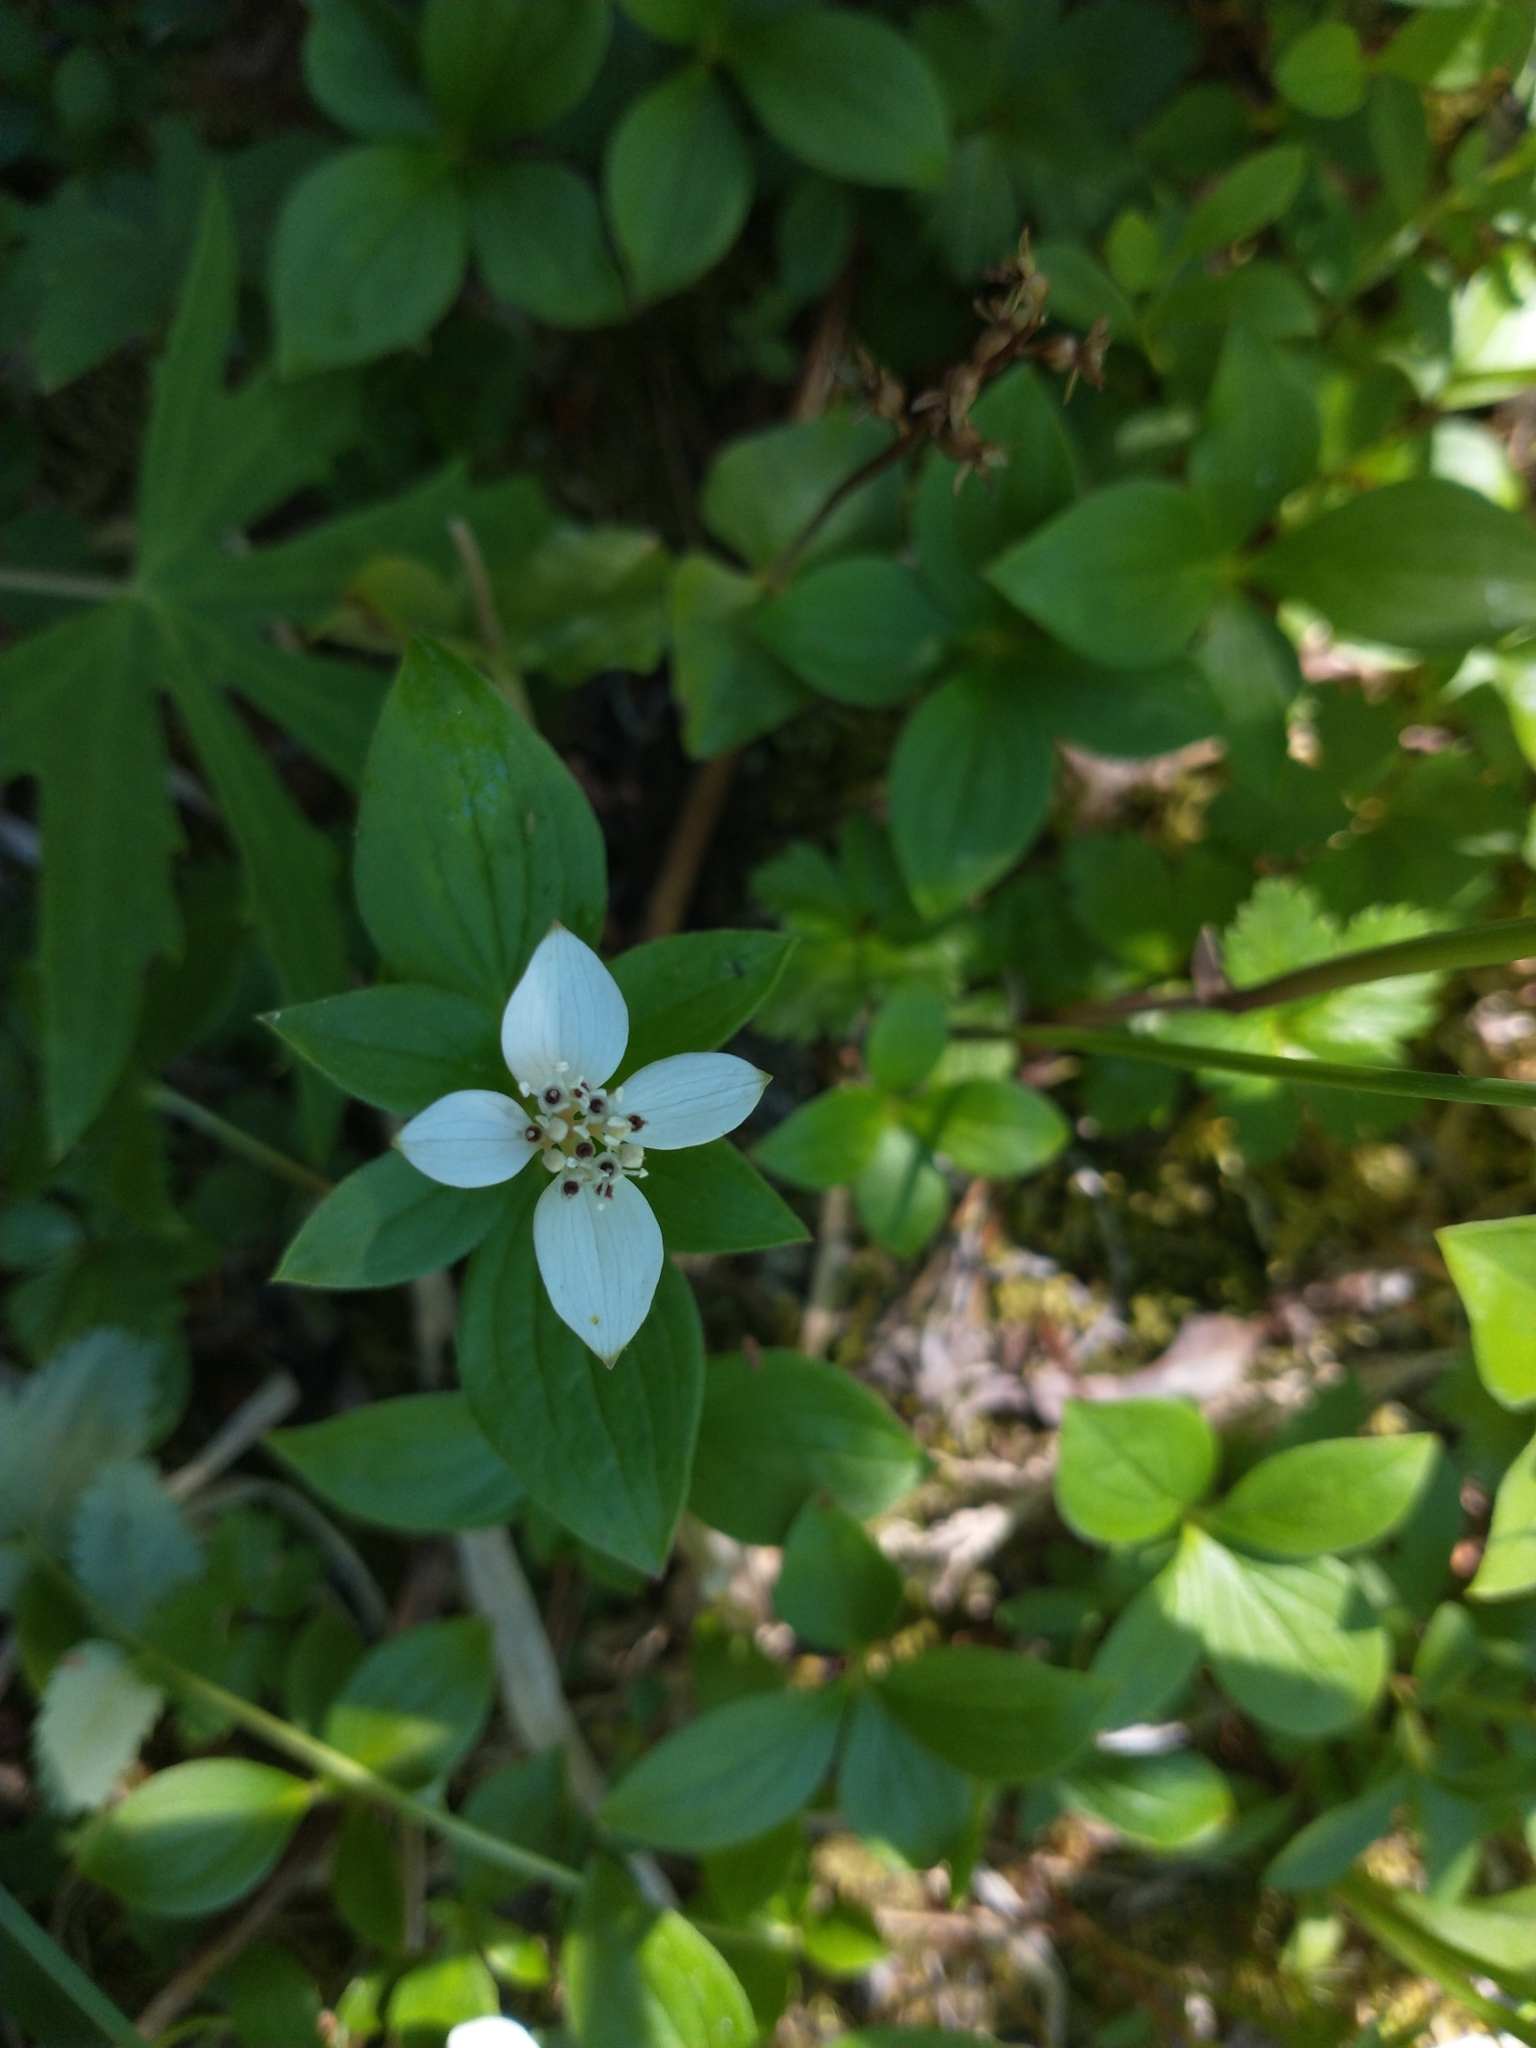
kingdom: Plantae
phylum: Tracheophyta
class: Magnoliopsida
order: Cornales
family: Cornaceae
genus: Cornus
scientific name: Cornus canadensis
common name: Creeping dogwood
